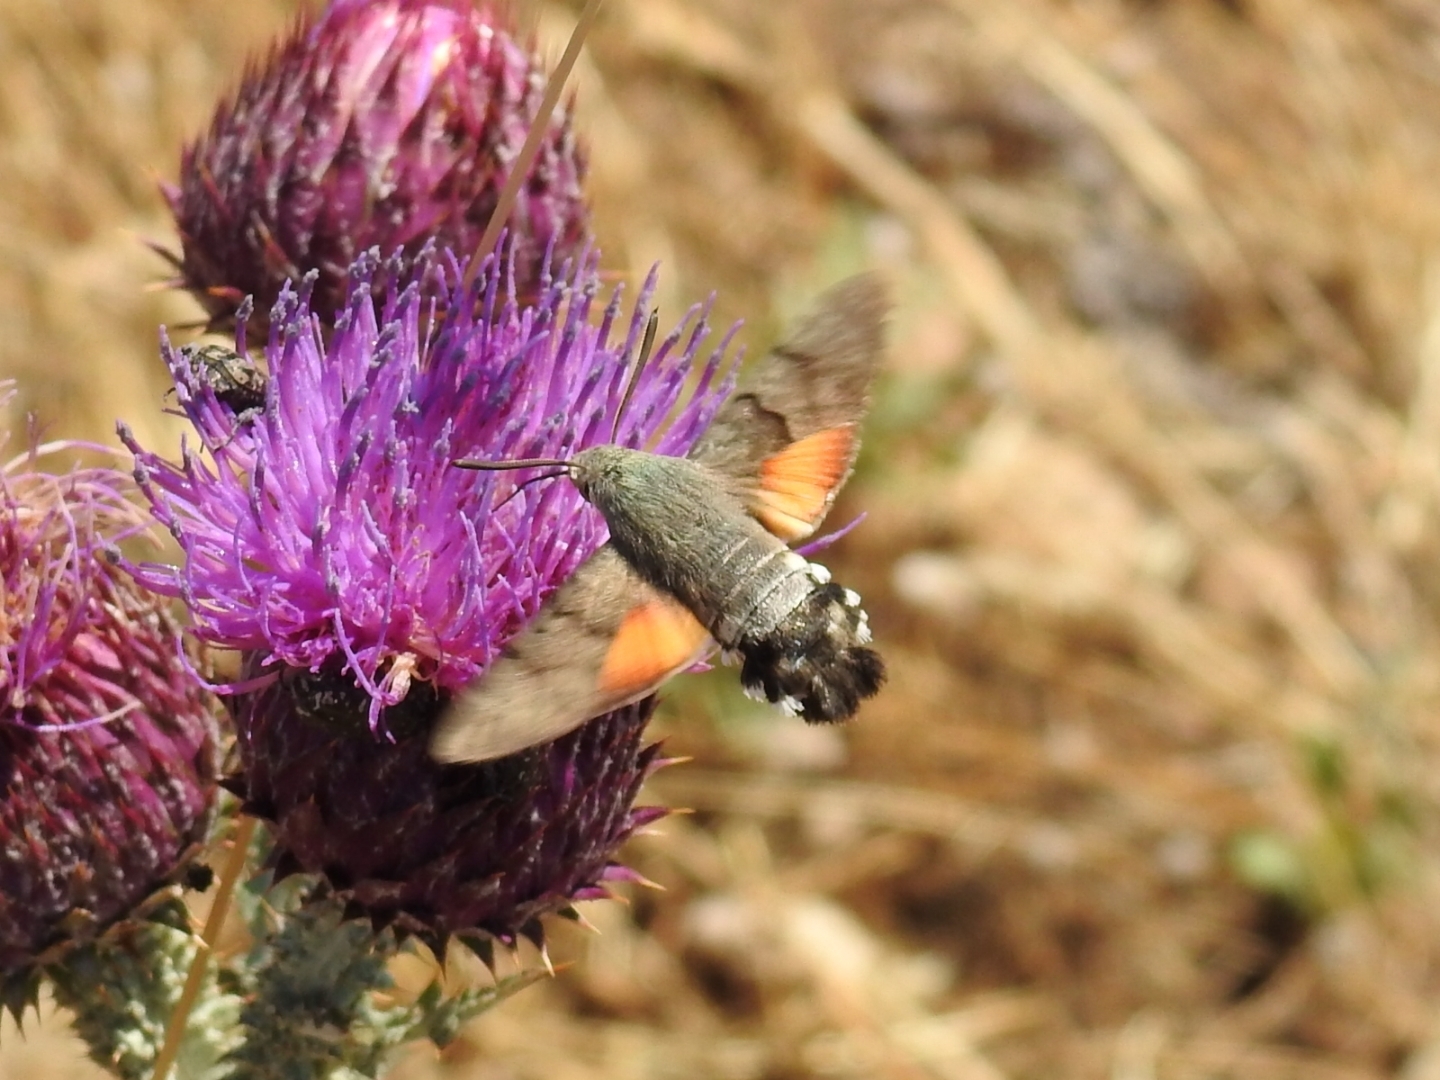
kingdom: Animalia
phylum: Arthropoda
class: Insecta
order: Lepidoptera
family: Sphingidae
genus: Macroglossum
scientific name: Macroglossum stellatarum
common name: Humming-bird hawk-moth
